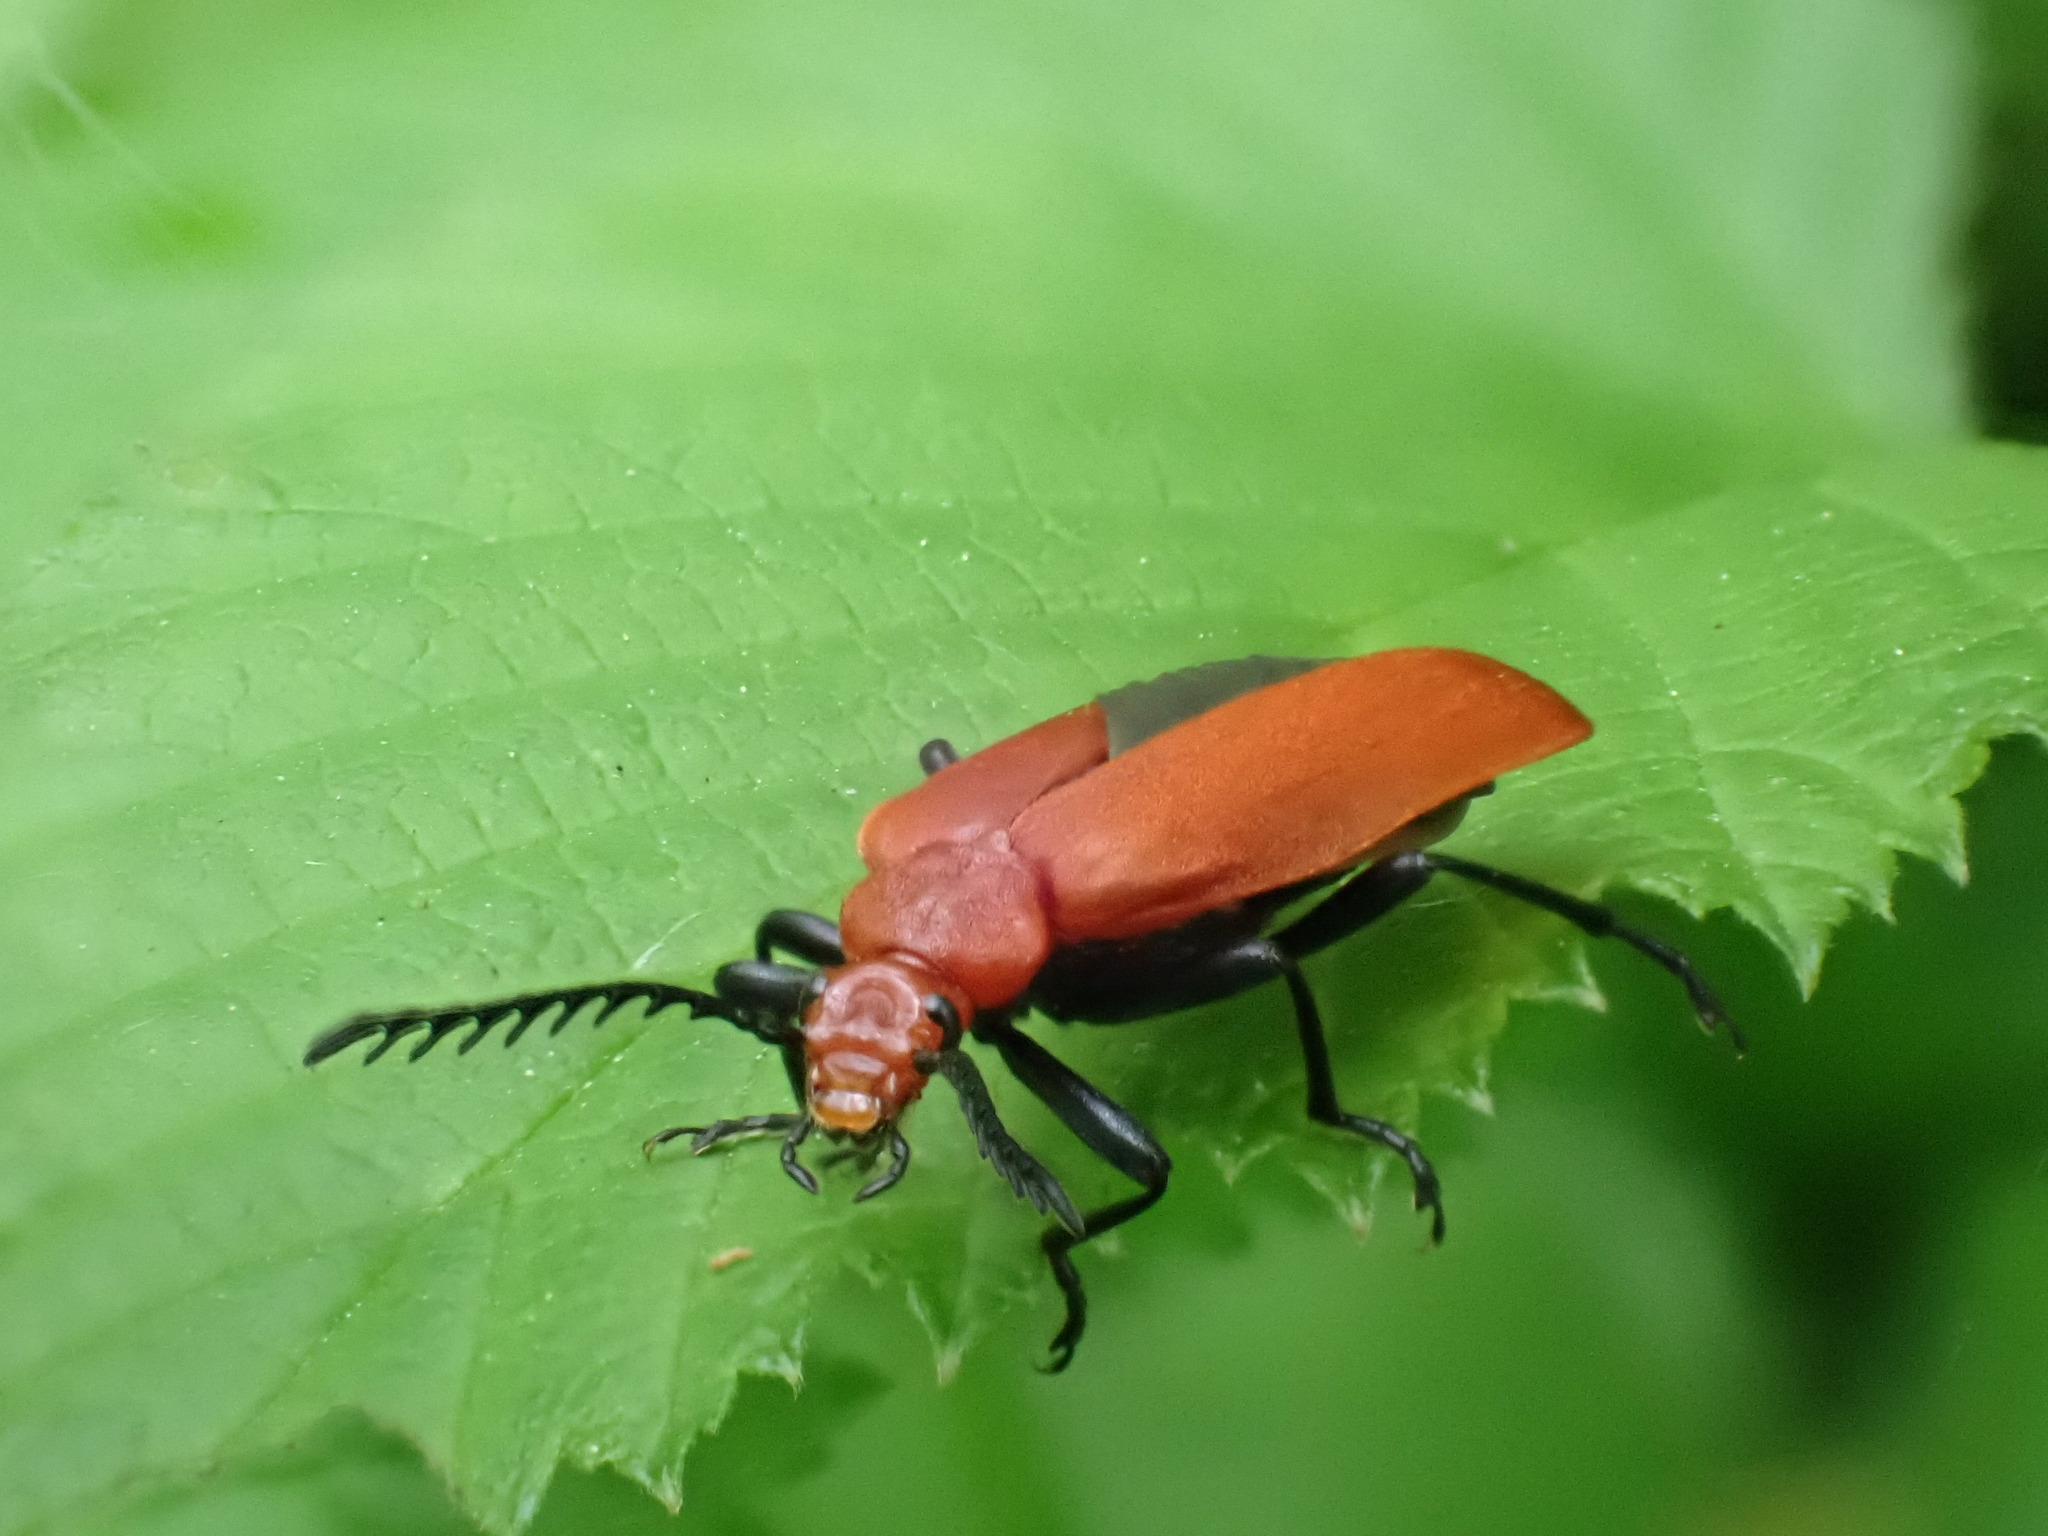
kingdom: Animalia
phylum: Arthropoda
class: Insecta
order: Coleoptera
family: Pyrochroidae
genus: Pyrochroa
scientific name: Pyrochroa serraticornis
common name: Red-headed cardinal beetle
